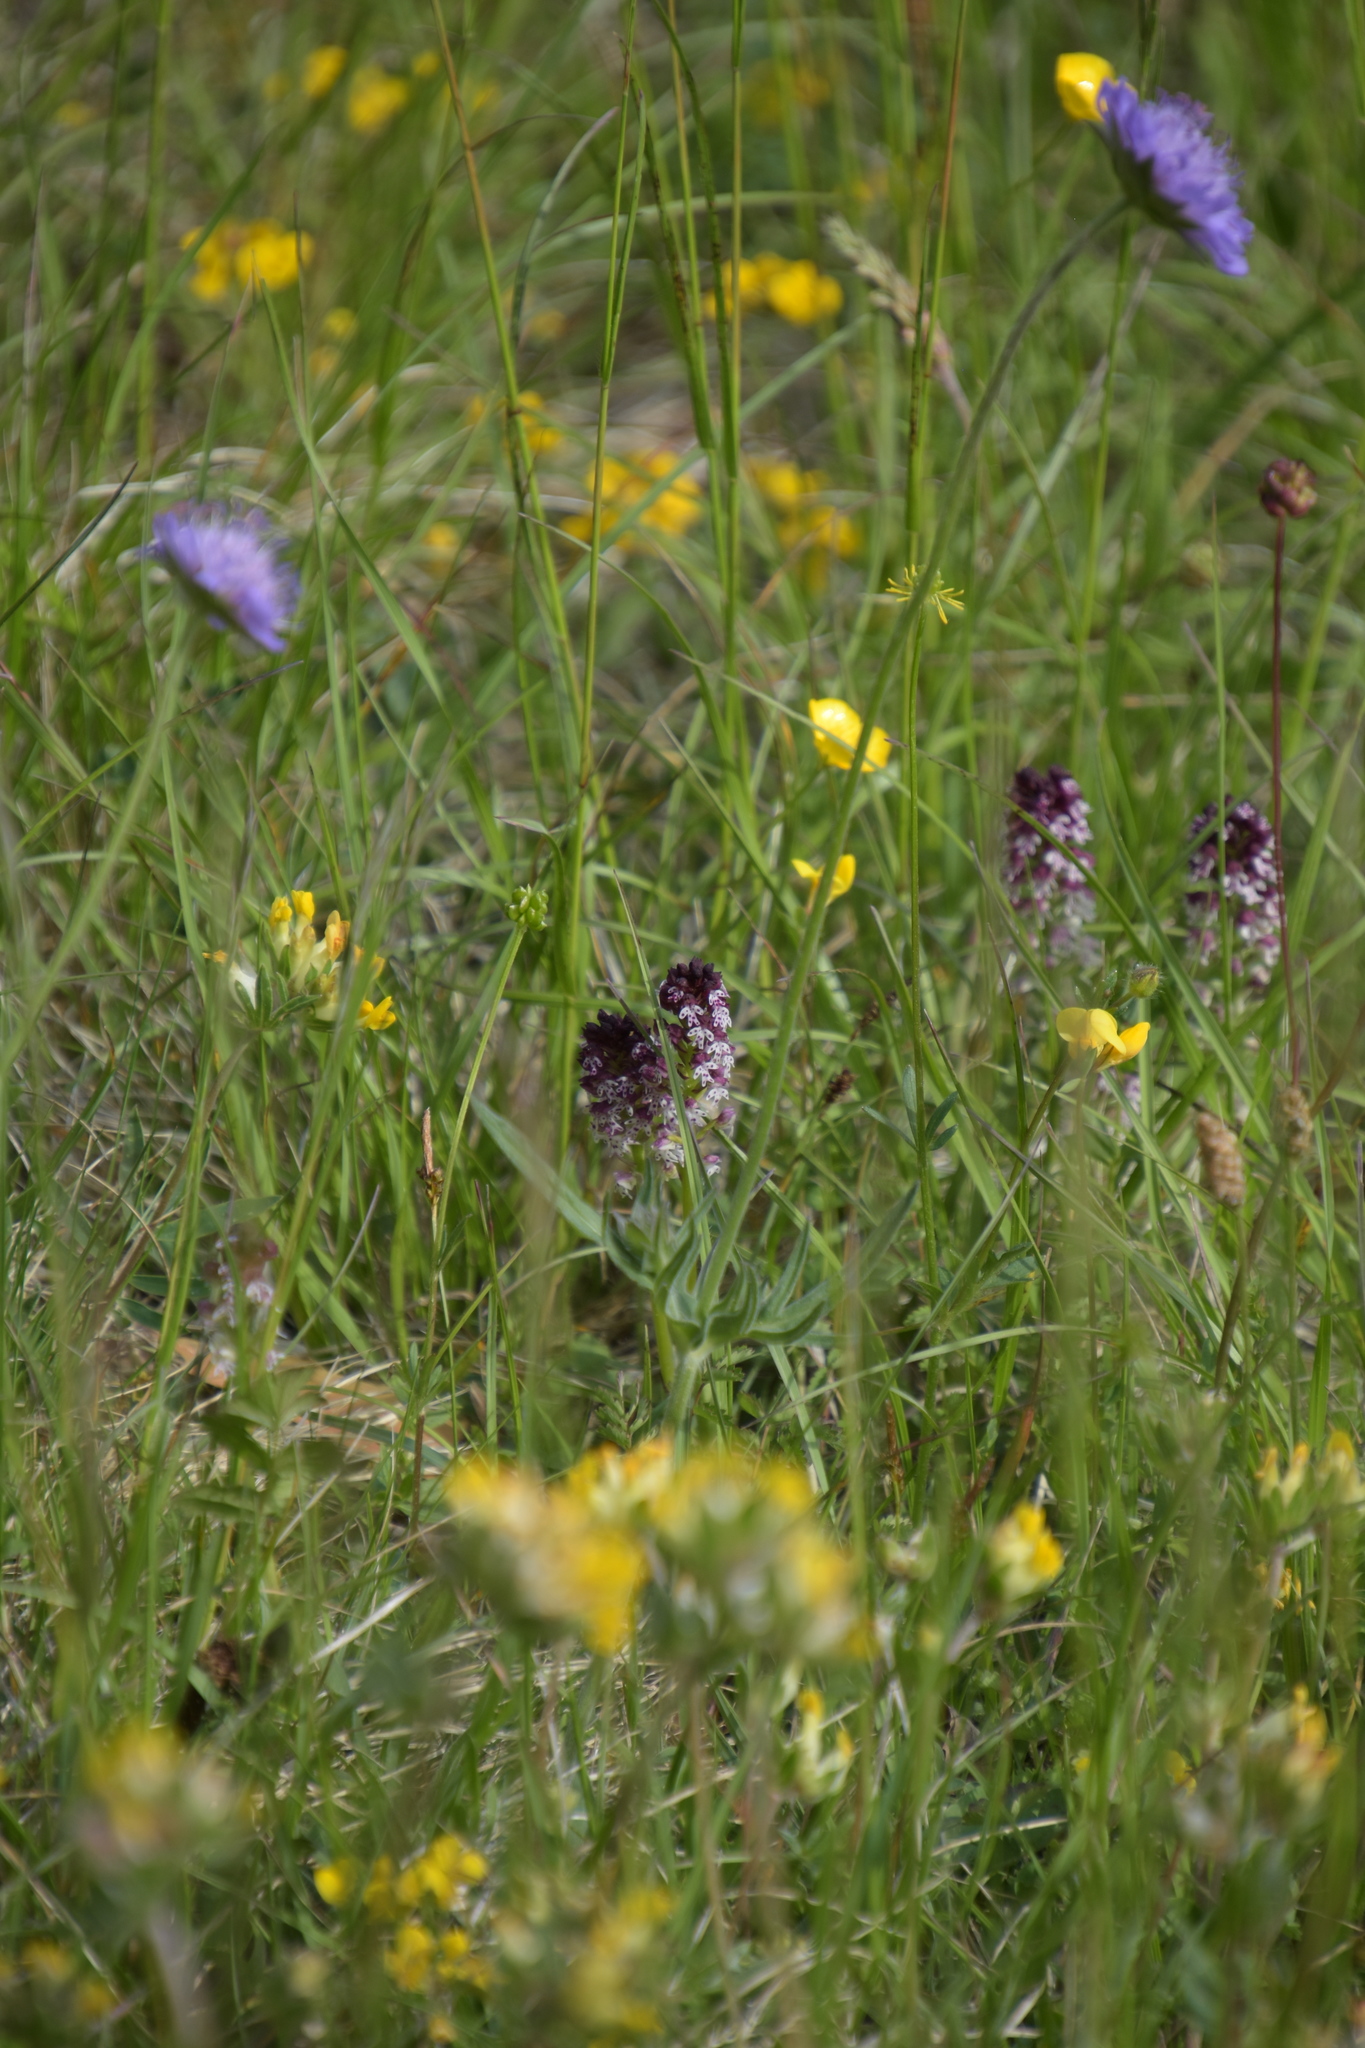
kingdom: Plantae
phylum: Tracheophyta
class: Liliopsida
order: Asparagales
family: Orchidaceae
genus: Neotinea
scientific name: Neotinea ustulata
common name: Burnt orchid
